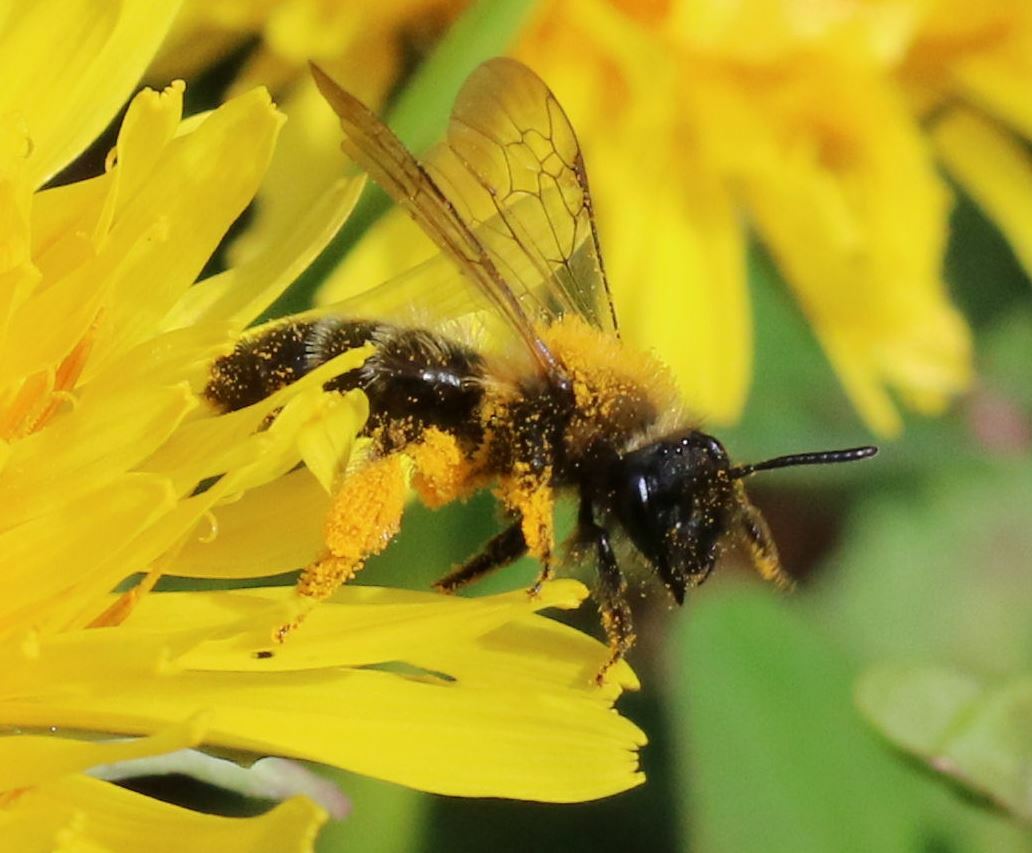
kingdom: Animalia
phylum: Arthropoda
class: Insecta
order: Hymenoptera
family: Andrenidae
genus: Andrena
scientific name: Andrena bicolor
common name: Gwynne's mining bee
